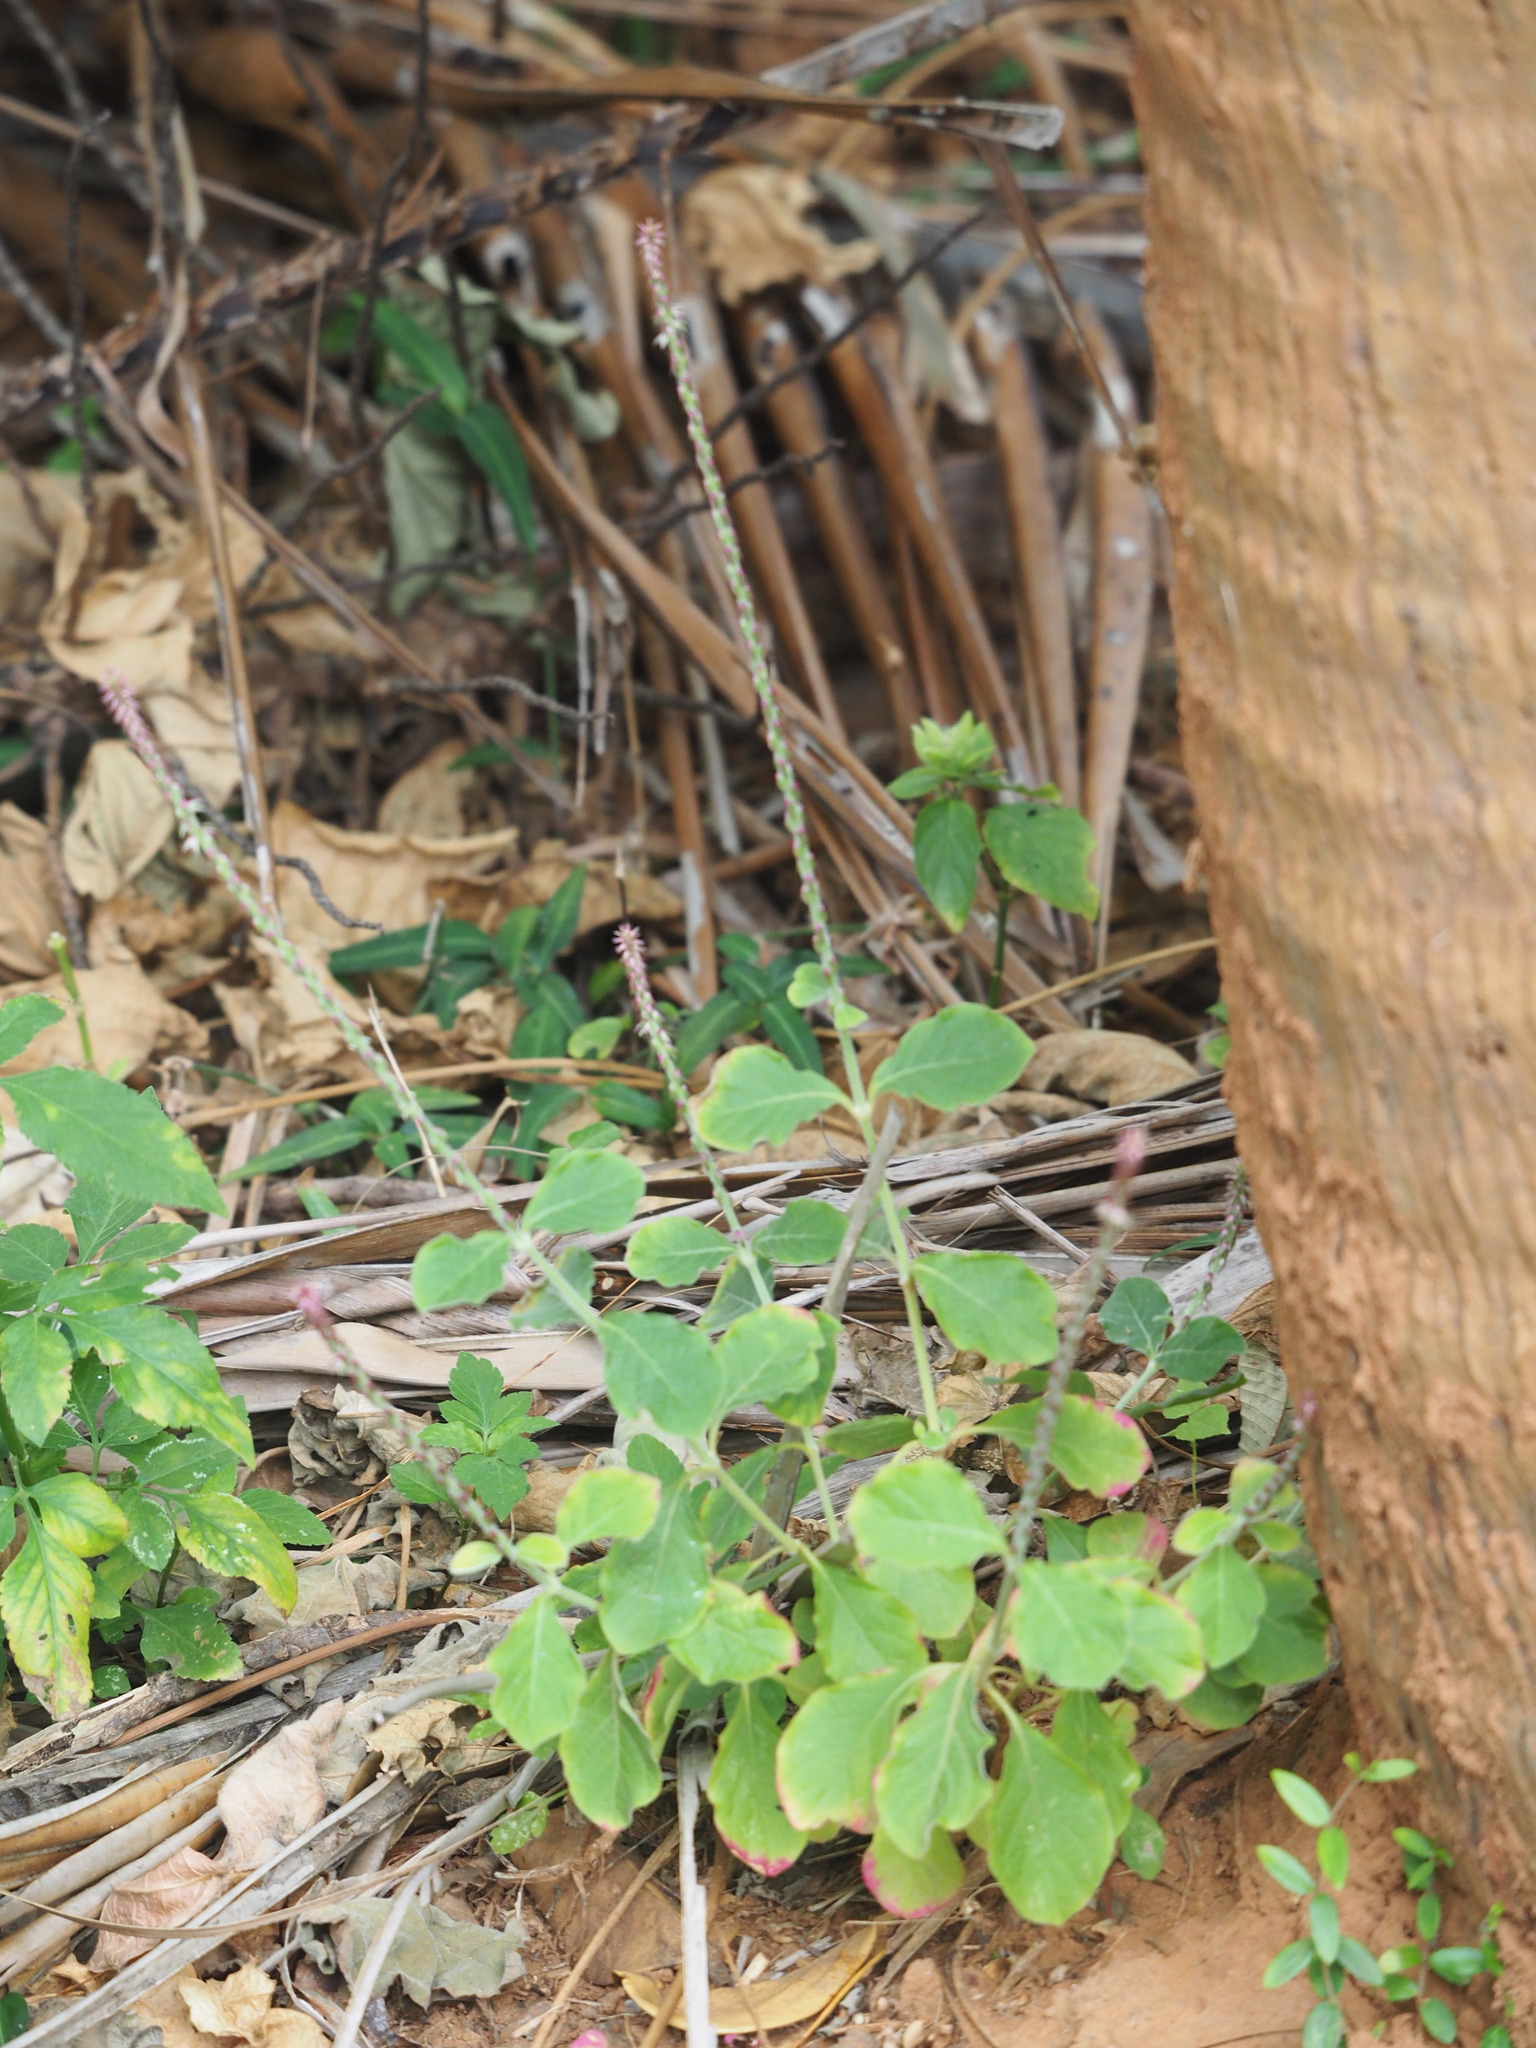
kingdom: Plantae
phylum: Tracheophyta
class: Magnoliopsida
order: Caryophyllales
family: Amaranthaceae
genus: Achyranthes
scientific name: Achyranthes aspera
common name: Devil's horsewhip
